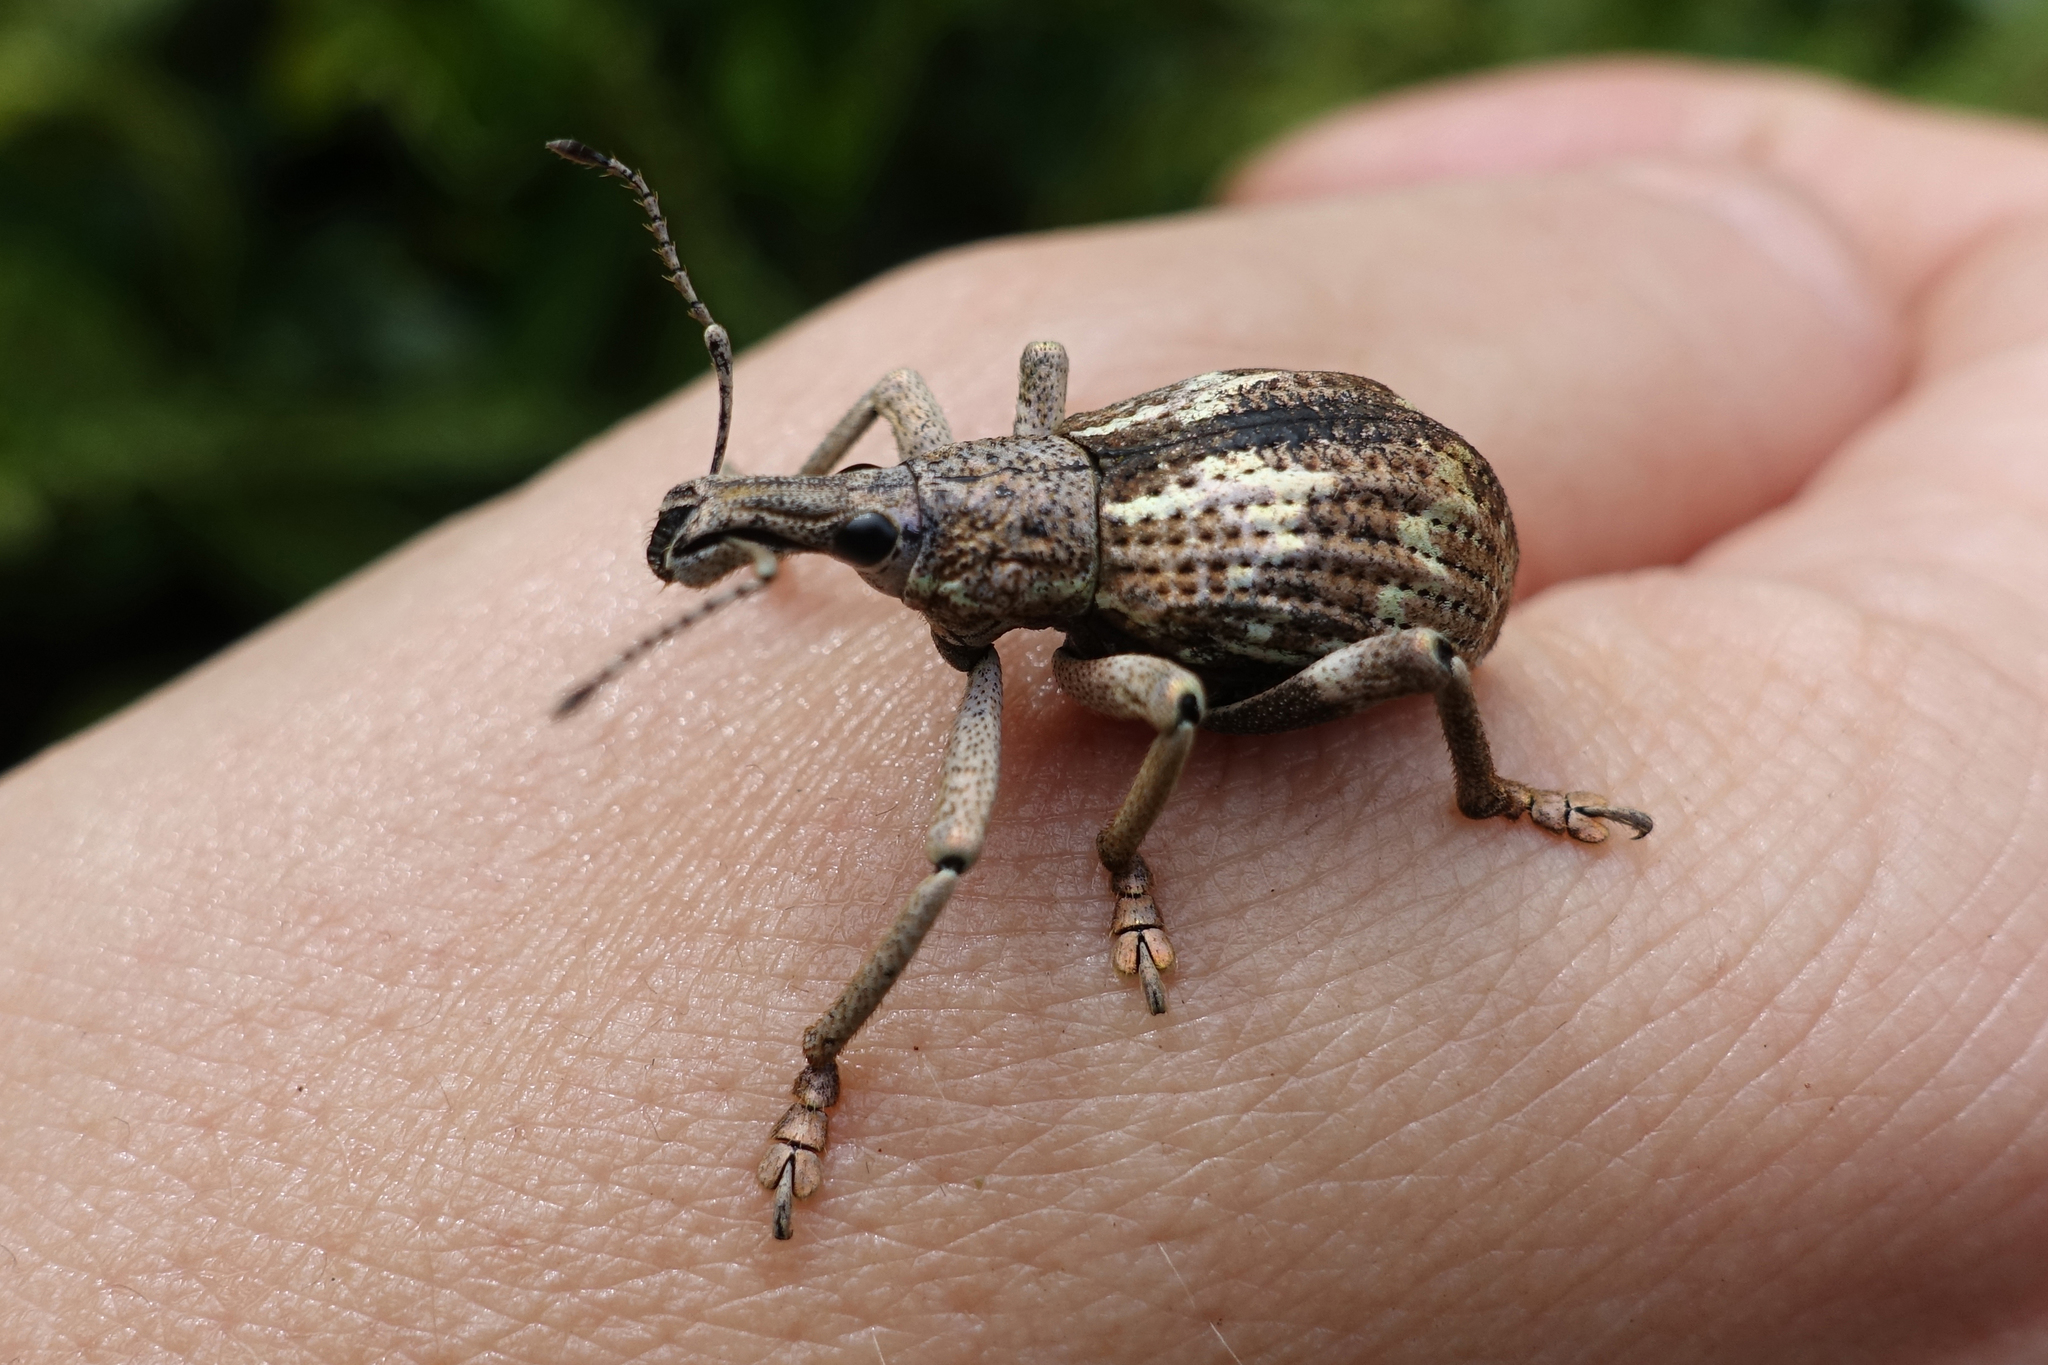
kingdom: Animalia
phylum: Arthropoda
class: Insecta
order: Coleoptera
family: Curculionidae
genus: Rhinoscapha
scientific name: Rhinoscapha opalescens
